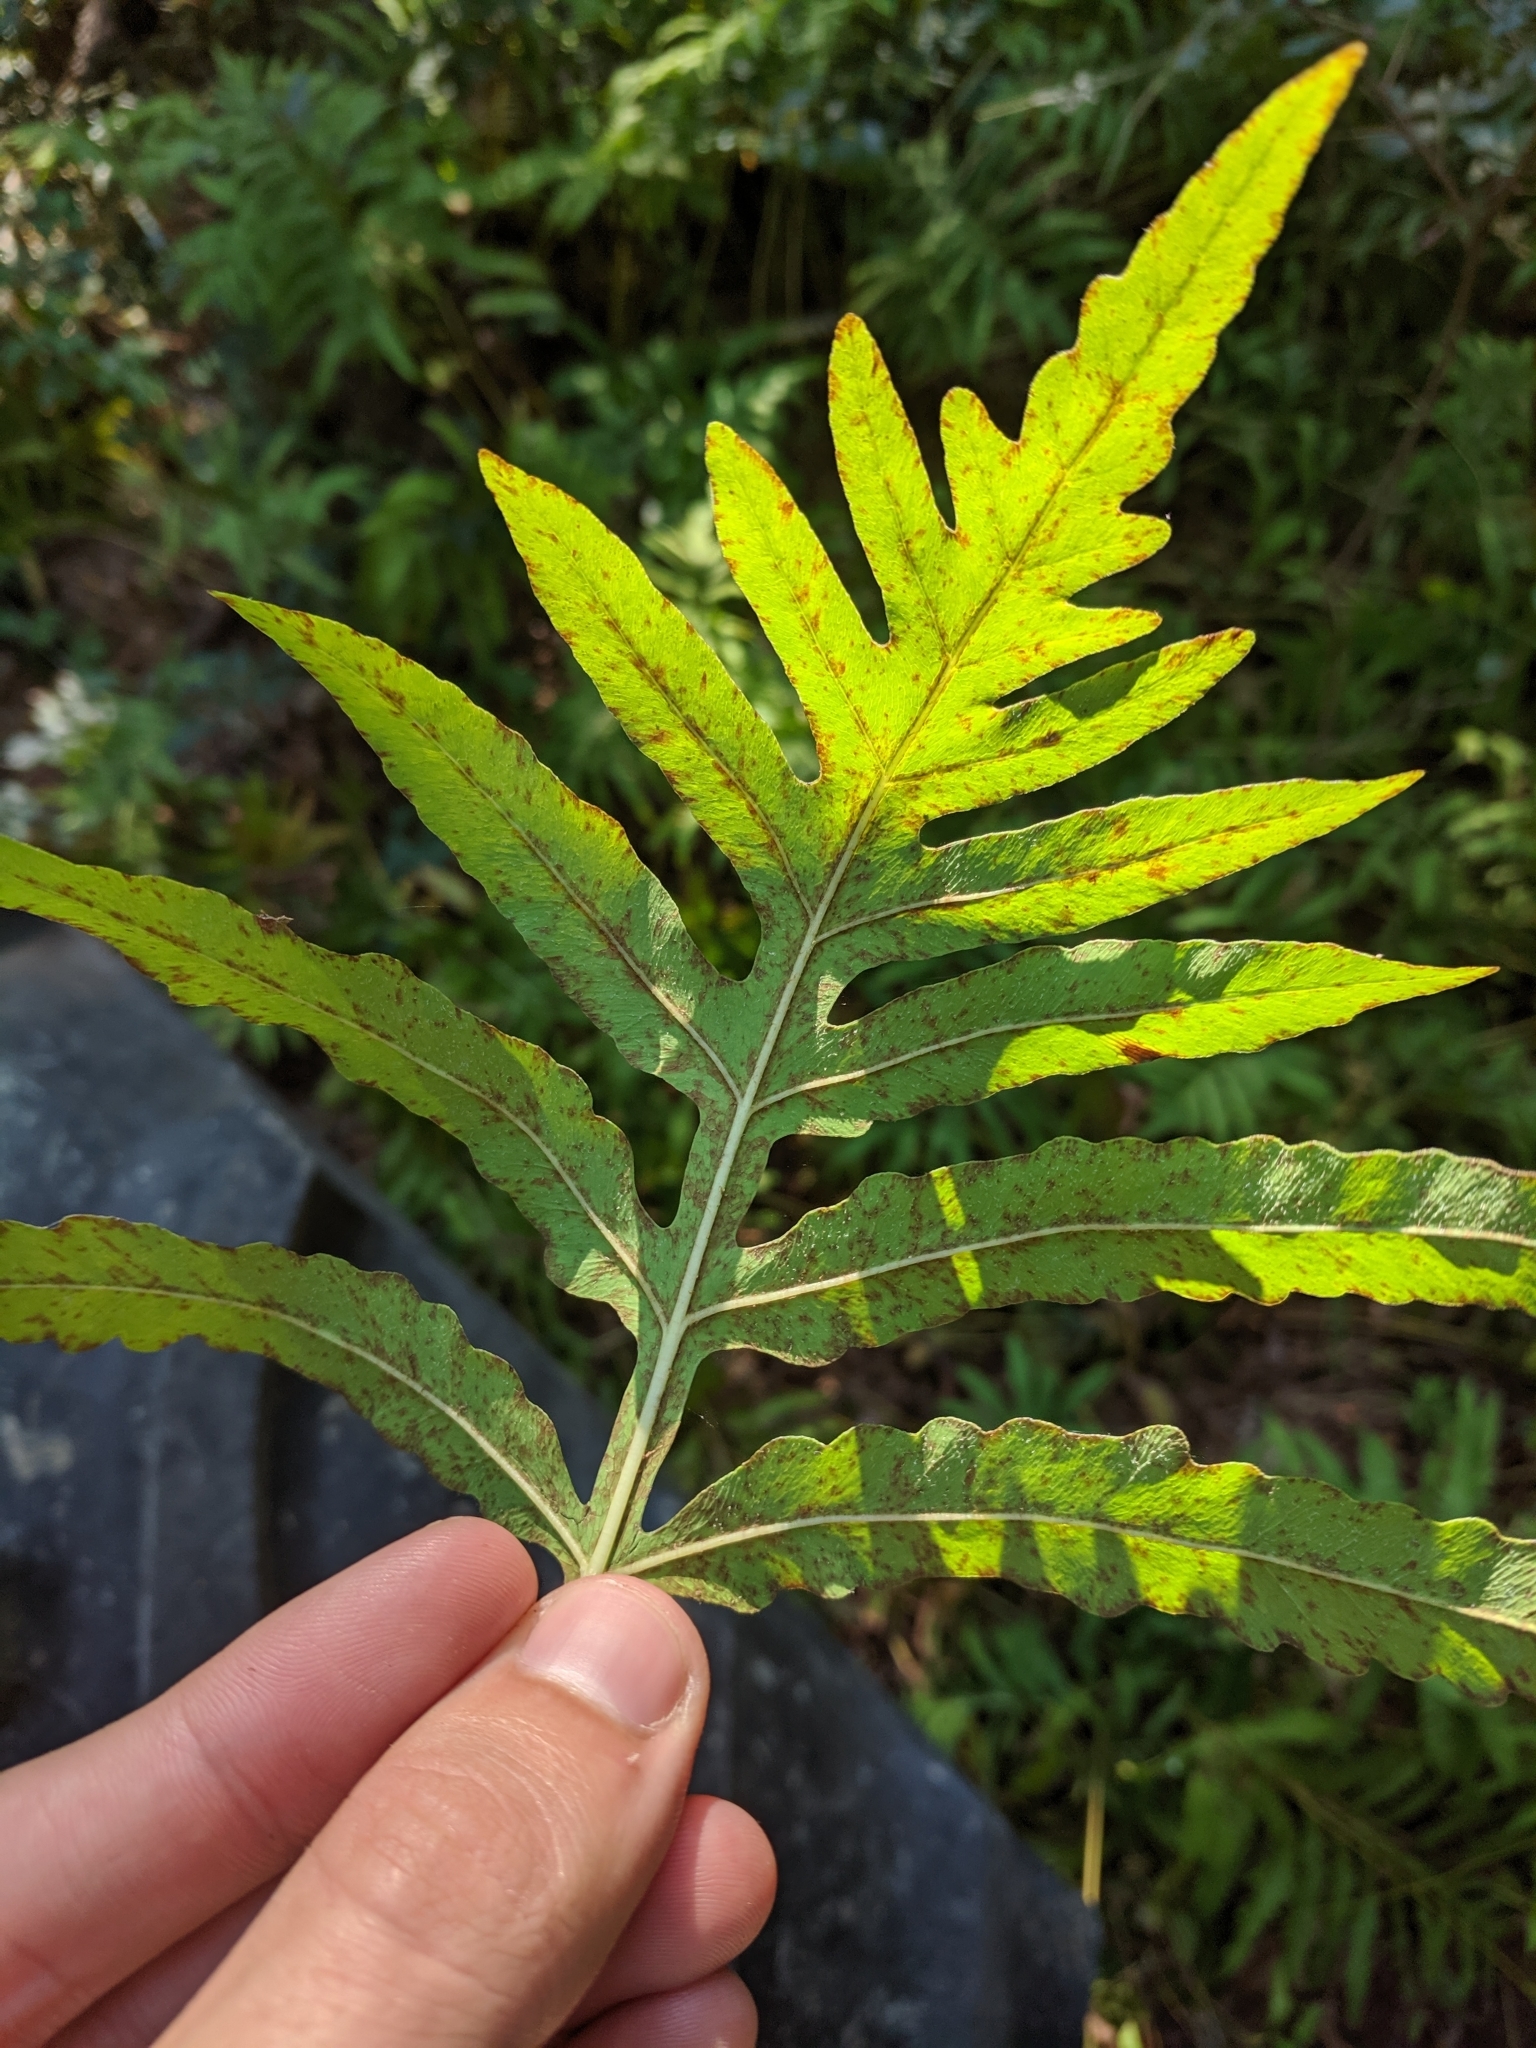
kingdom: Plantae
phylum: Tracheophyta
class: Polypodiopsida
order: Polypodiales
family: Onocleaceae
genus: Onoclea
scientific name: Onoclea sensibilis
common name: Sensitive fern
